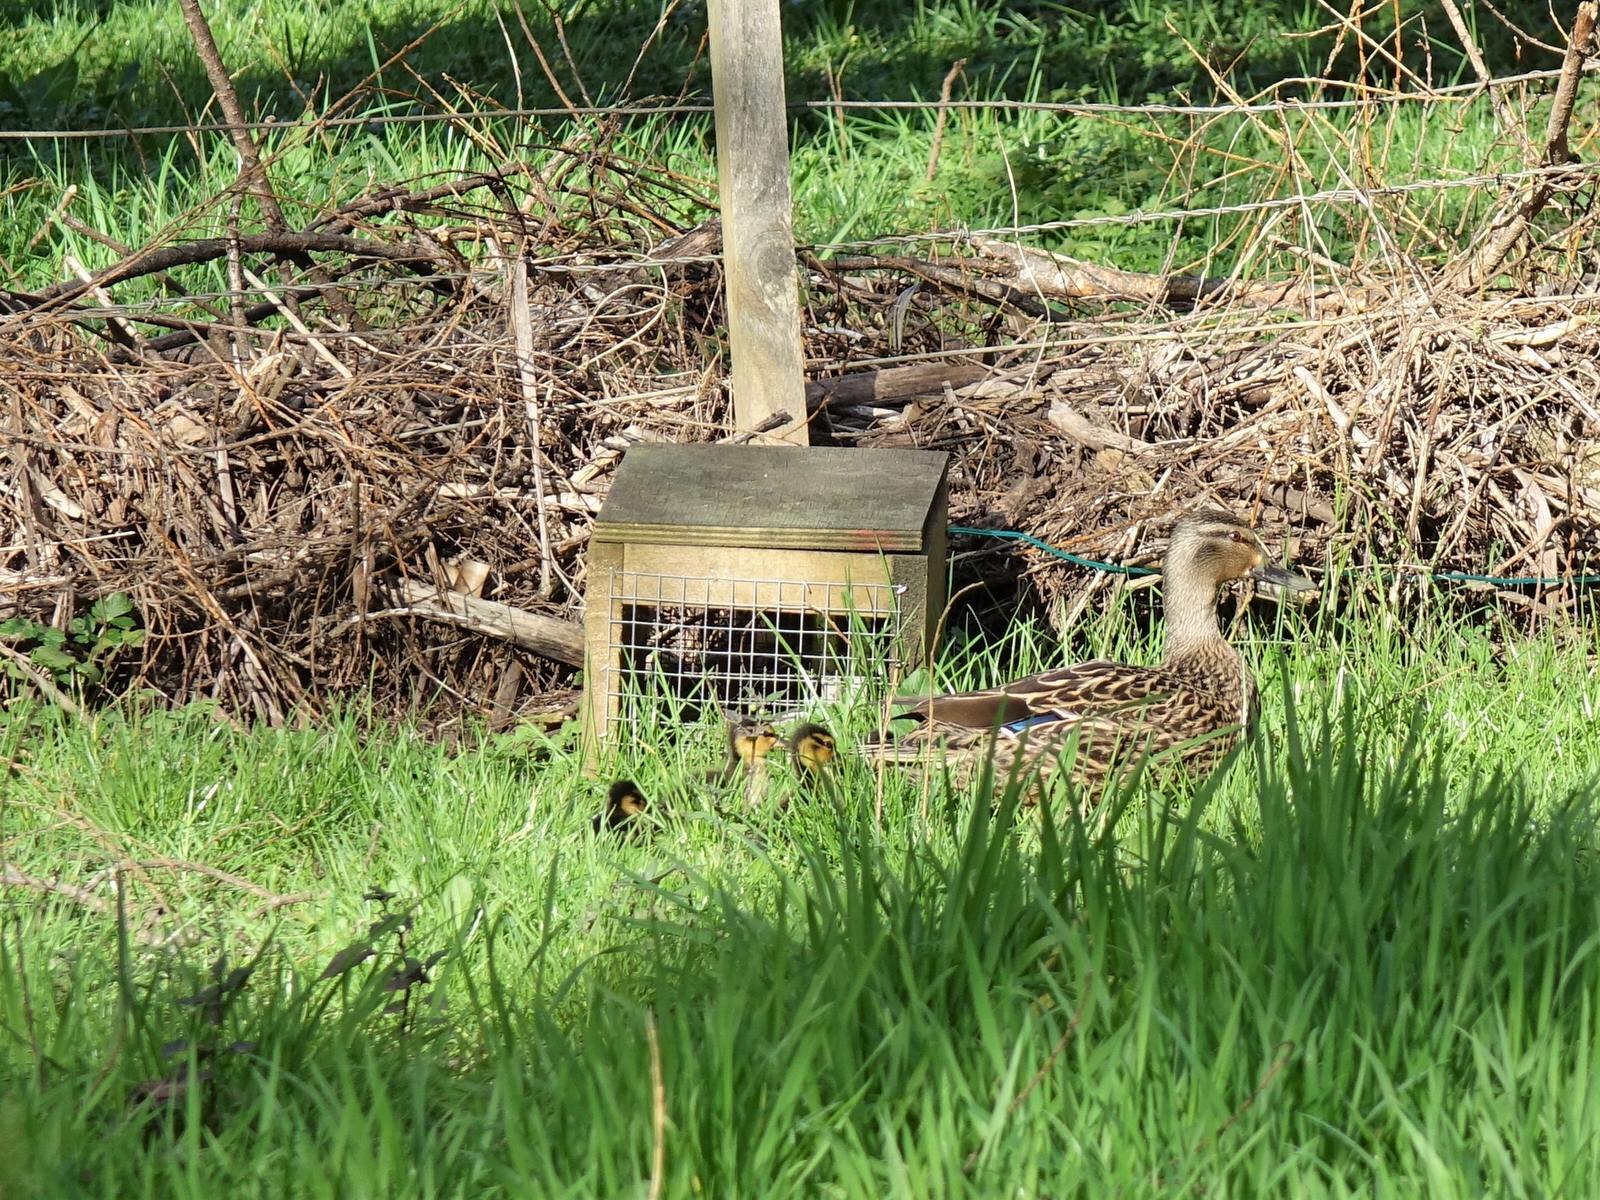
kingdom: Animalia
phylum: Chordata
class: Aves
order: Anseriformes
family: Anatidae
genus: Anas
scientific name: Anas platyrhynchos
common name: Mallard
